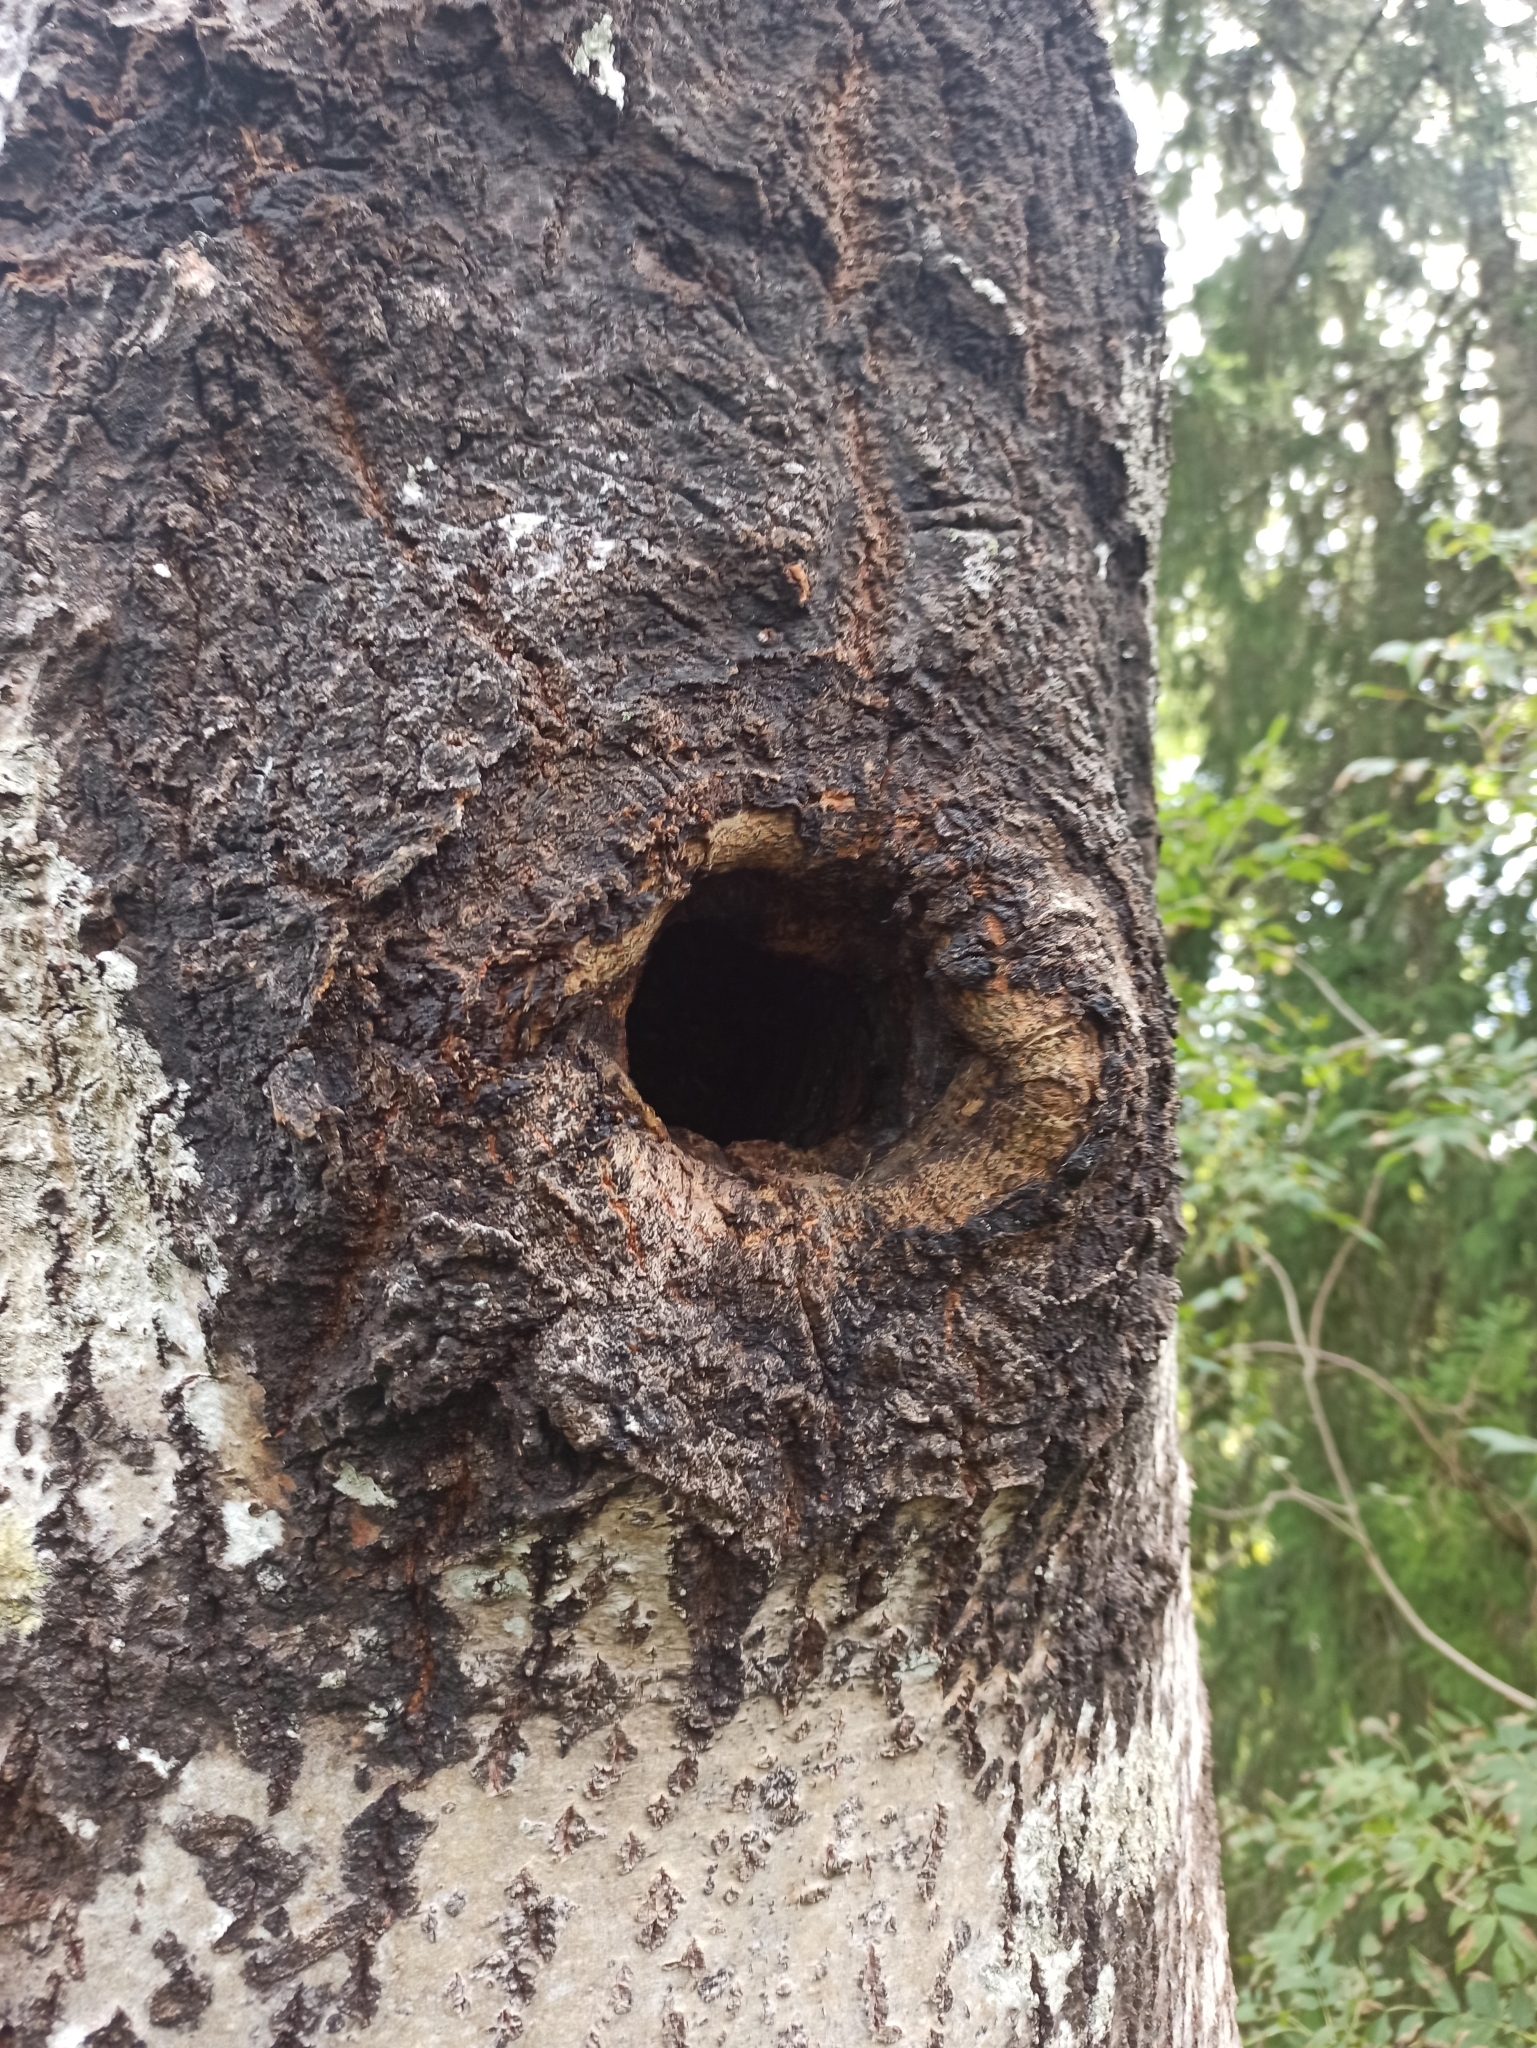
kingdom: Animalia
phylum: Arthropoda
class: Insecta
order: Hymenoptera
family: Apidae
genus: Apis
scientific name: Apis mellifera
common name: Honey bee
